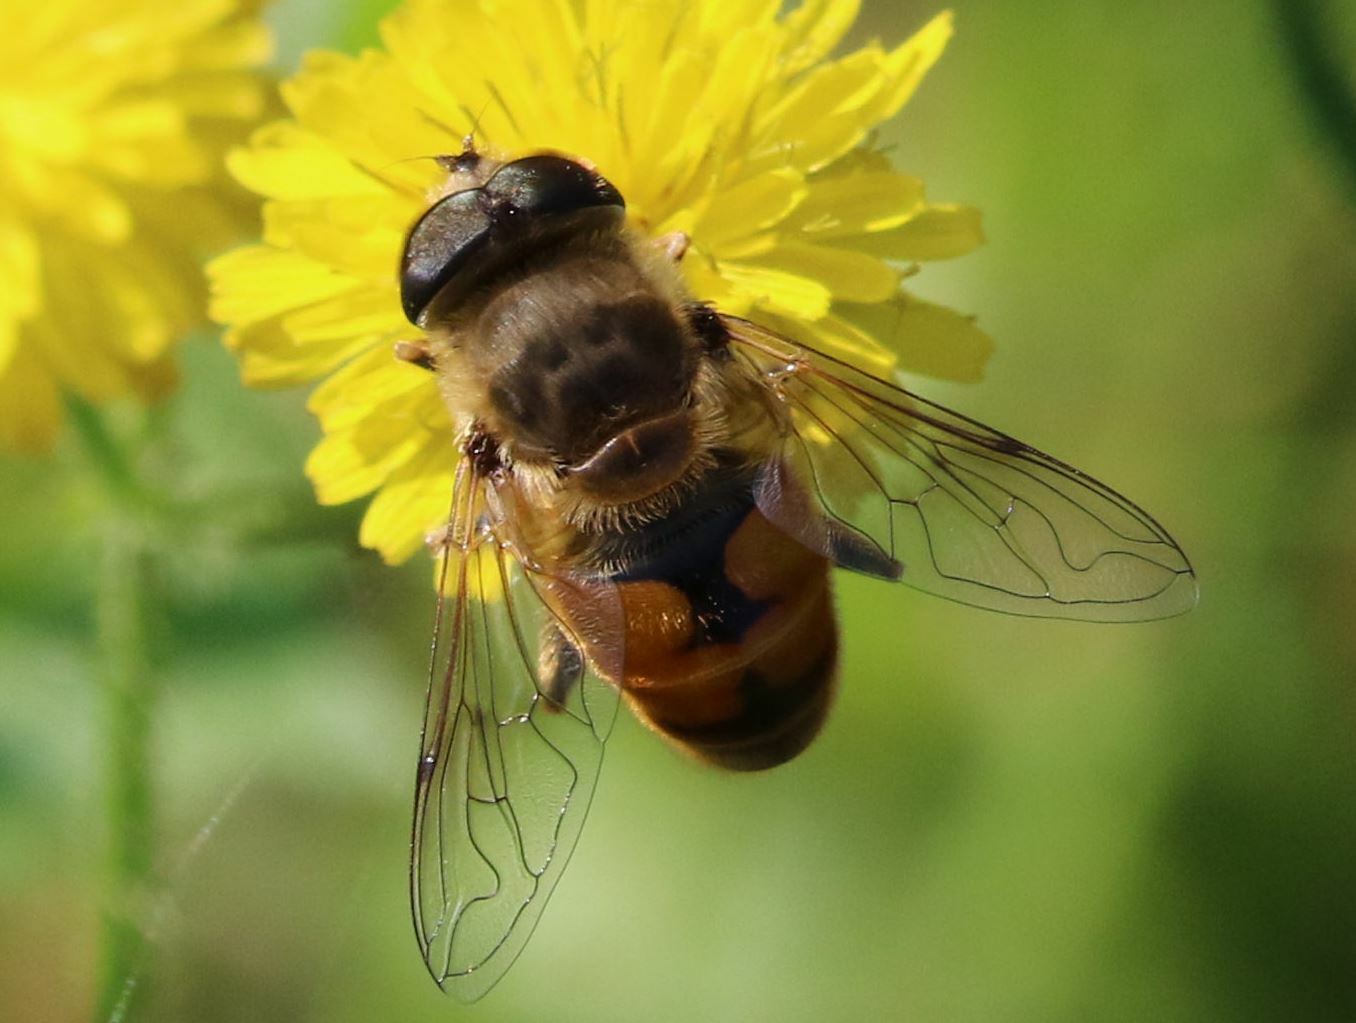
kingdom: Animalia
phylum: Arthropoda
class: Insecta
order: Diptera
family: Syrphidae
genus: Eristalis
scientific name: Eristalis tenax
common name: Drone fly
